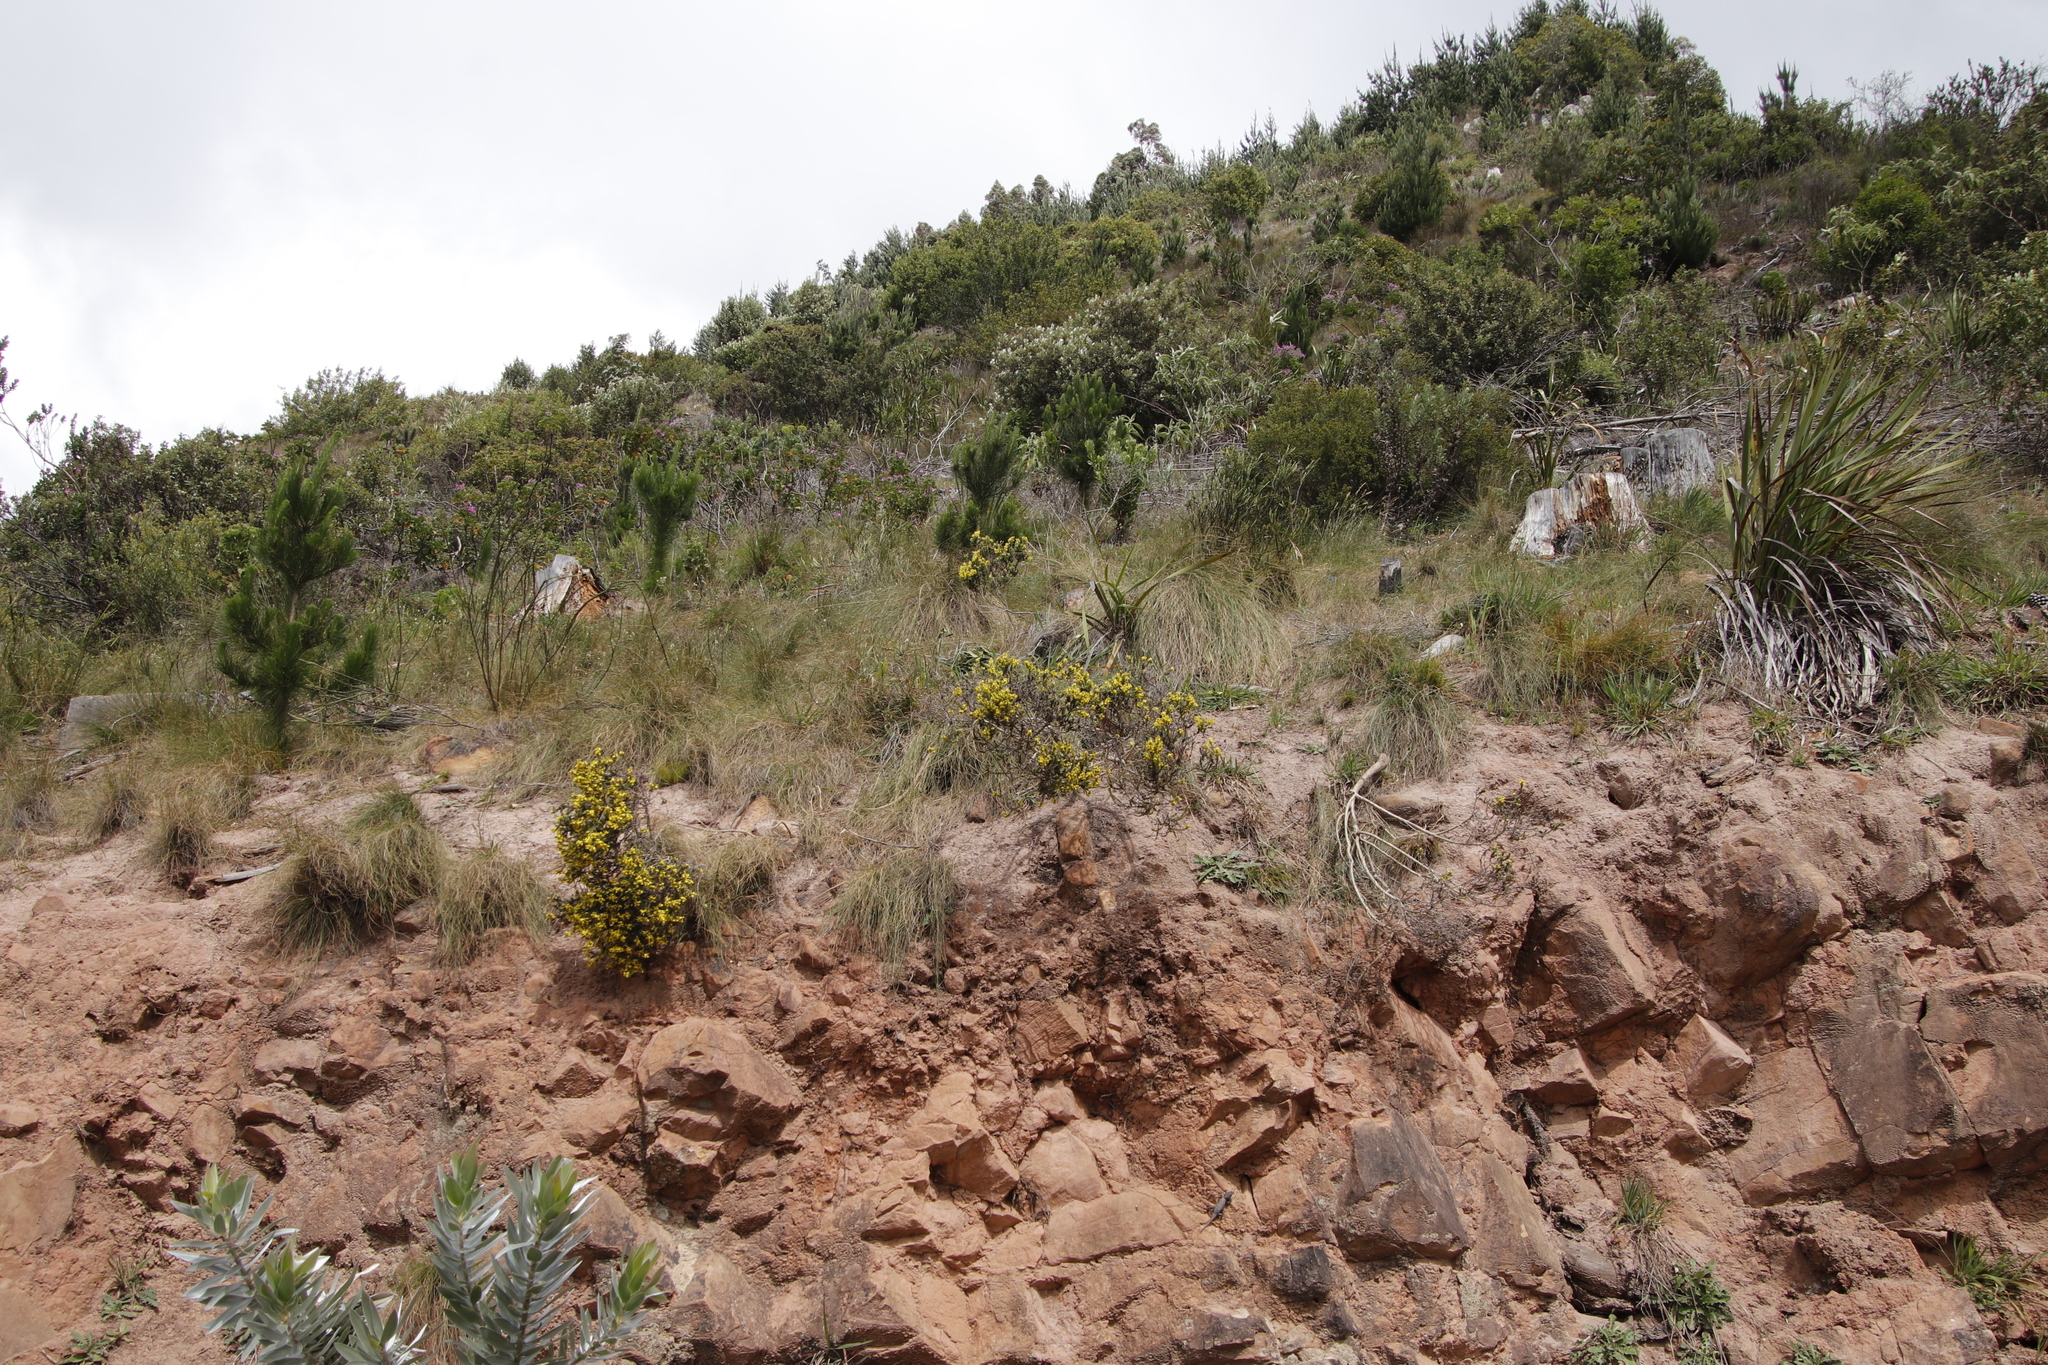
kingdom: Plantae
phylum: Tracheophyta
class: Magnoliopsida
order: Fabales
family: Fabaceae
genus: Aspalathus
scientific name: Aspalathus ericifolia
